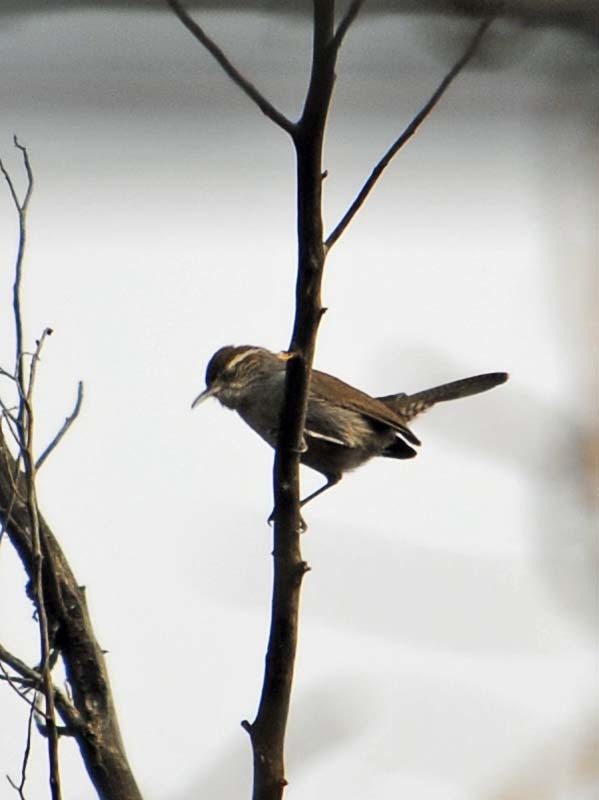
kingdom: Animalia
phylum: Chordata
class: Aves
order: Passeriformes
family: Troglodytidae
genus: Thryomanes
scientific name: Thryomanes bewickii
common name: Bewick's wren
